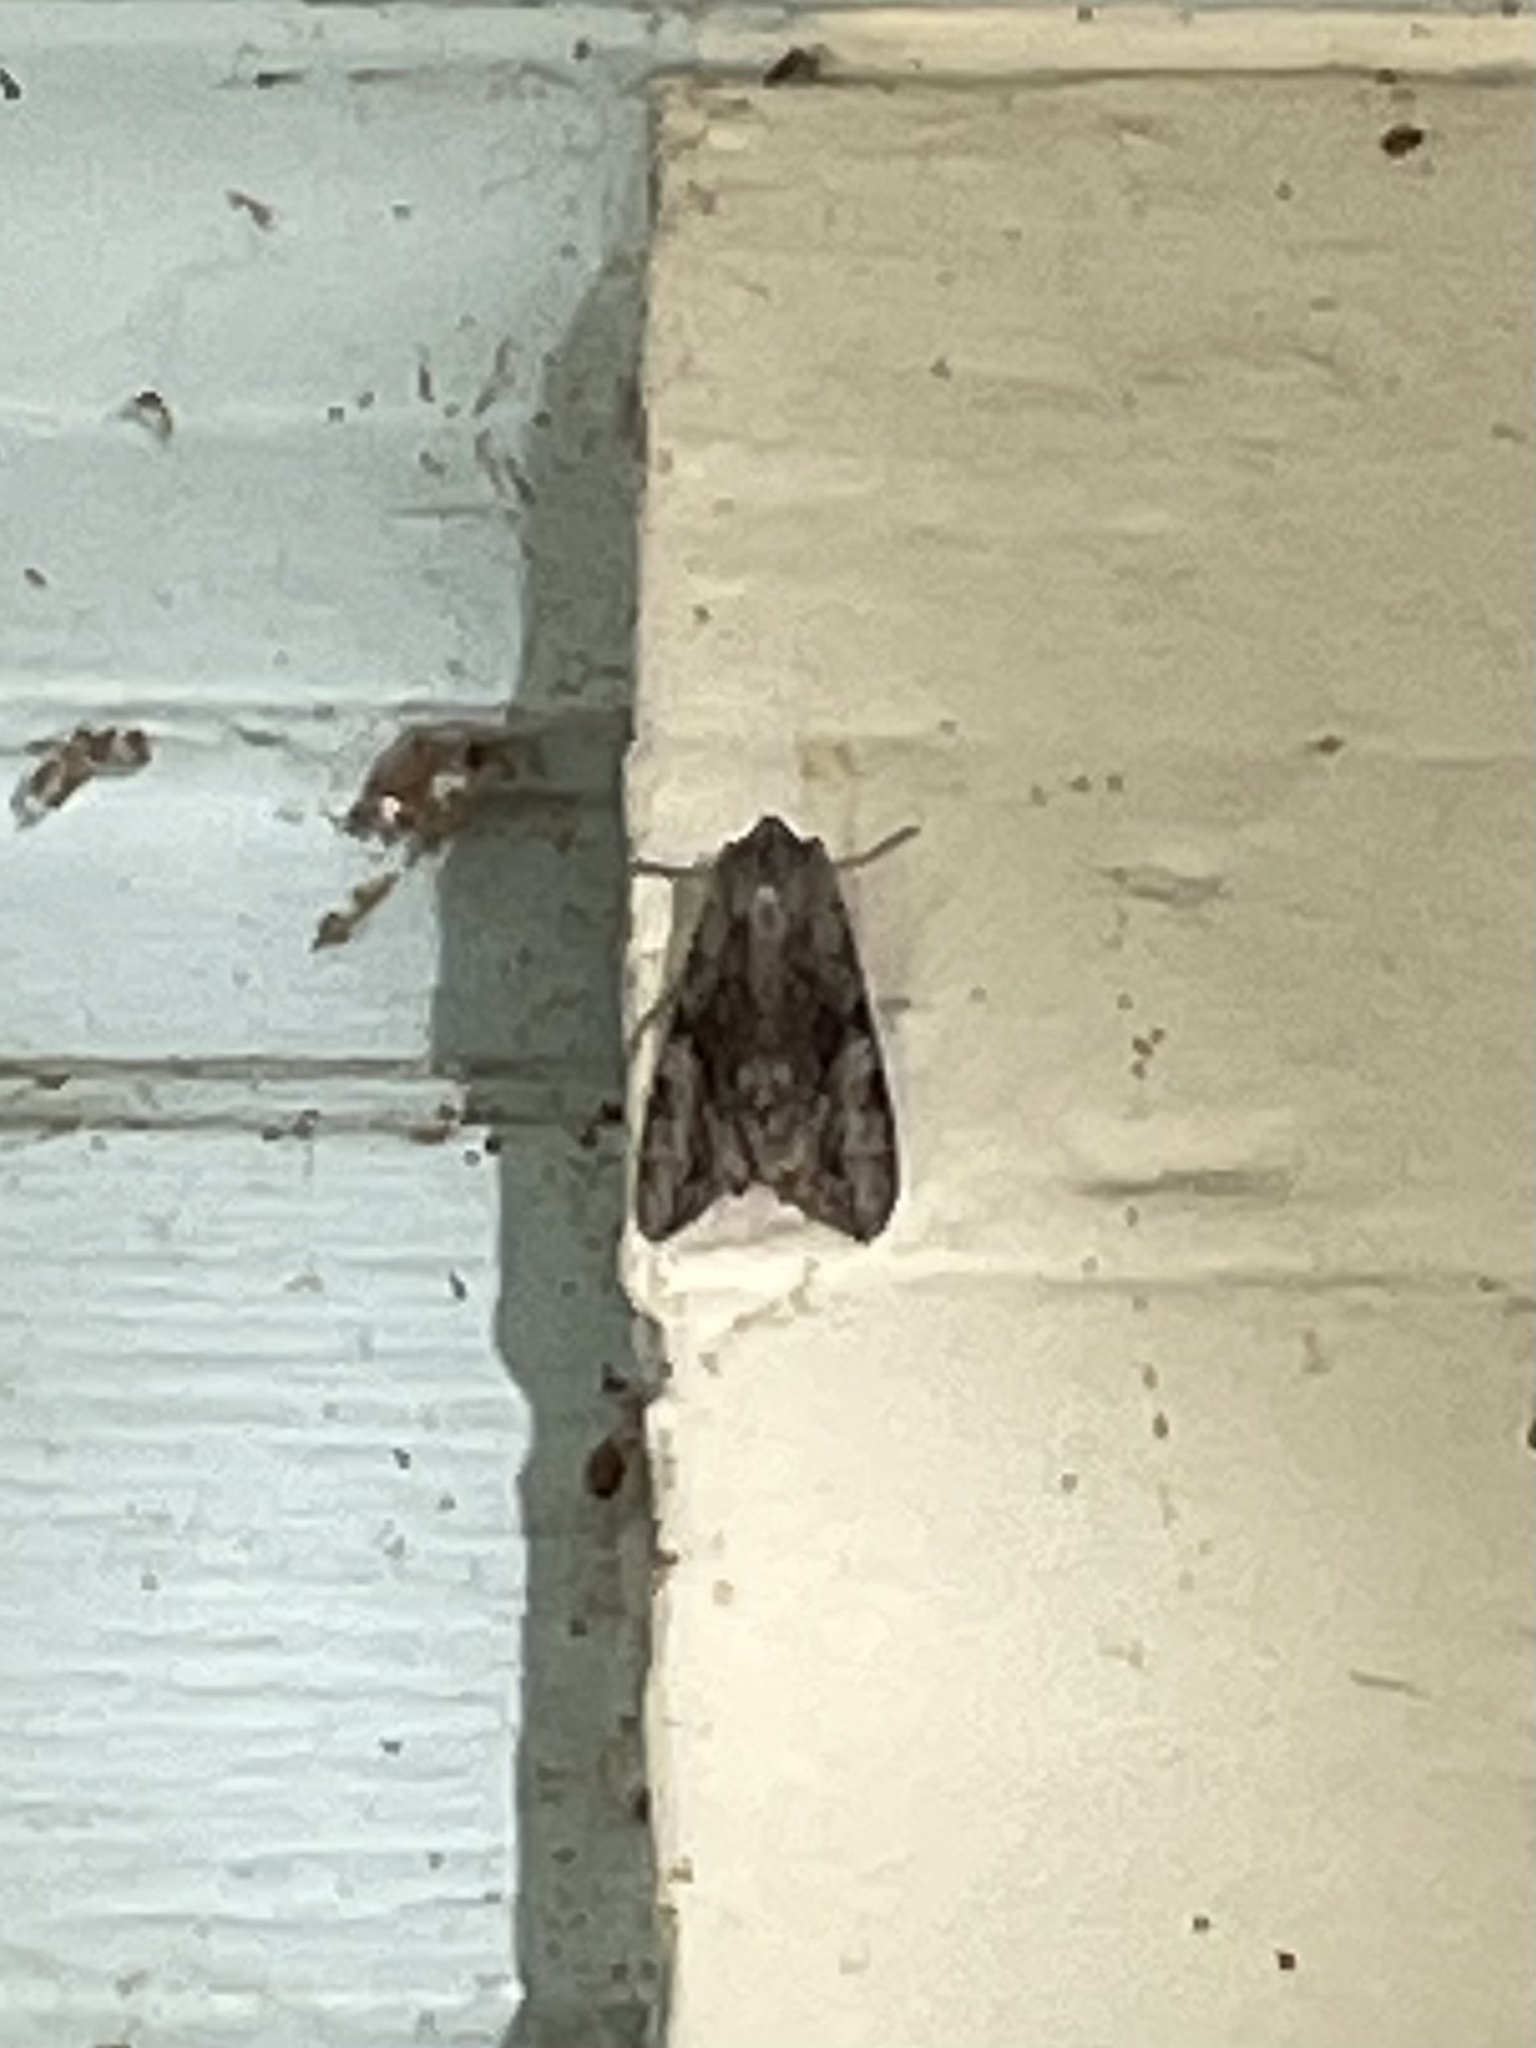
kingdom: Animalia
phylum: Arthropoda
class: Insecta
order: Lepidoptera
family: Sphingidae
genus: Erinnyis
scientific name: Erinnyis obscura
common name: Obscure sphinx
